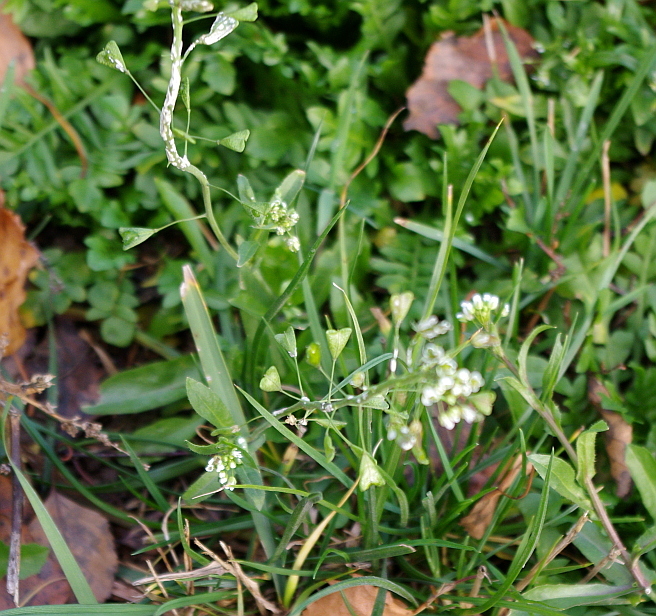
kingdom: Plantae
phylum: Tracheophyta
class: Magnoliopsida
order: Brassicales
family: Brassicaceae
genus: Capsella
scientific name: Capsella bursa-pastoris
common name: Shepherd's purse
